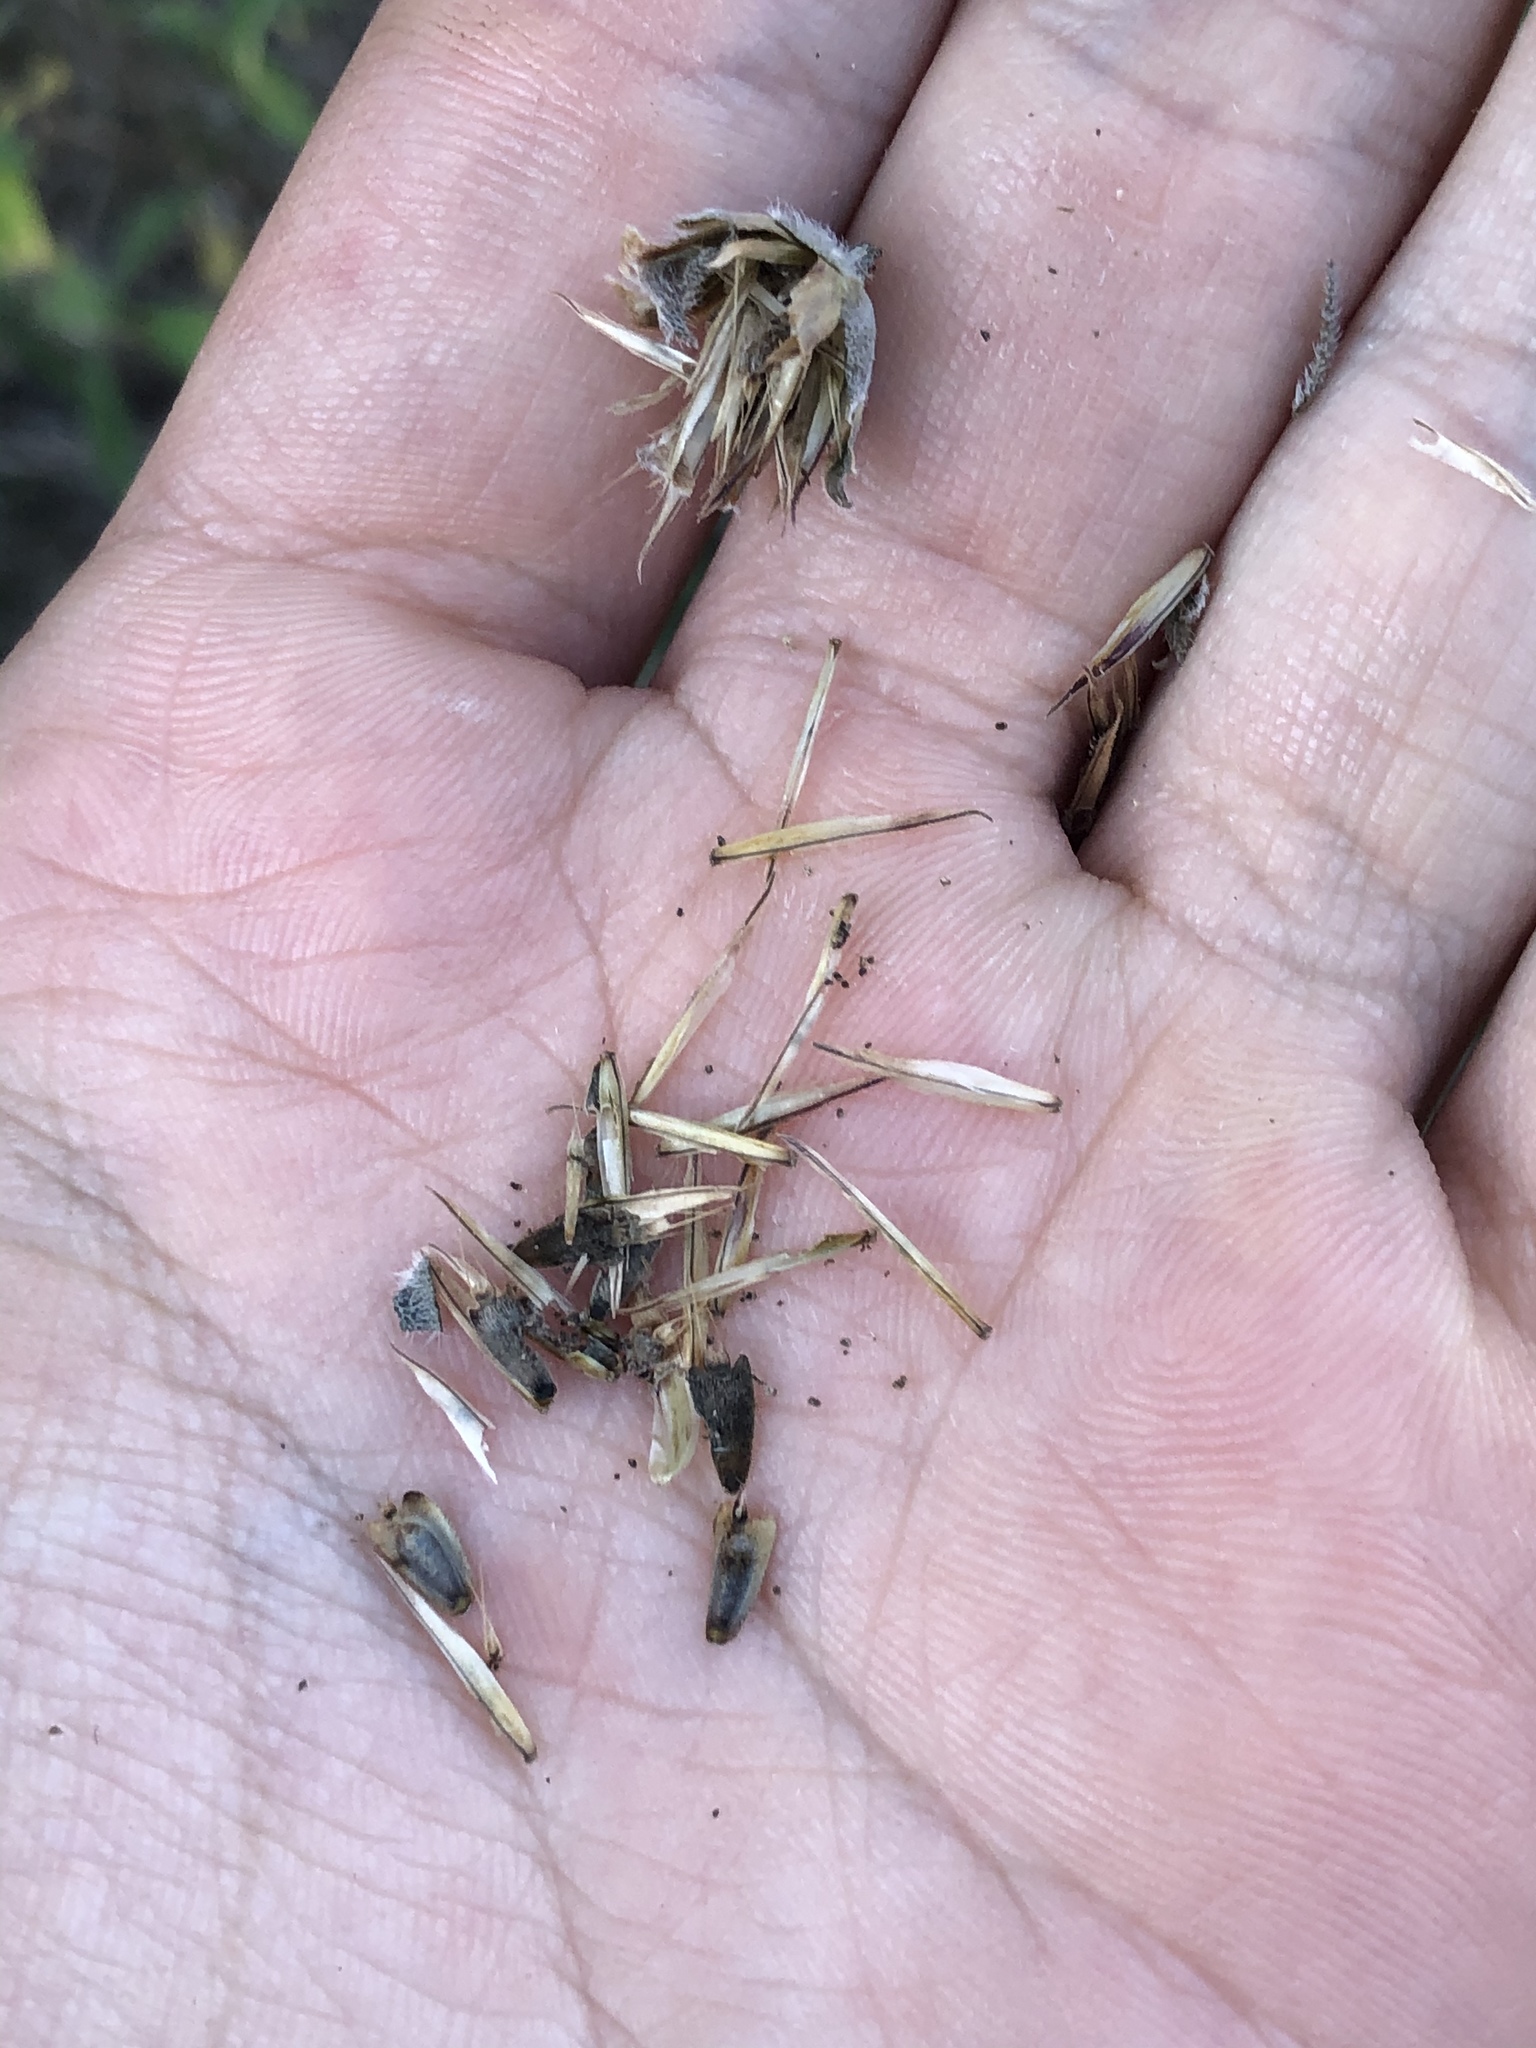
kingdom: Plantae
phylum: Tracheophyta
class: Magnoliopsida
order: Asterales
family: Asteraceae
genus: Wedelia
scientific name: Wedelia acapulcensis
